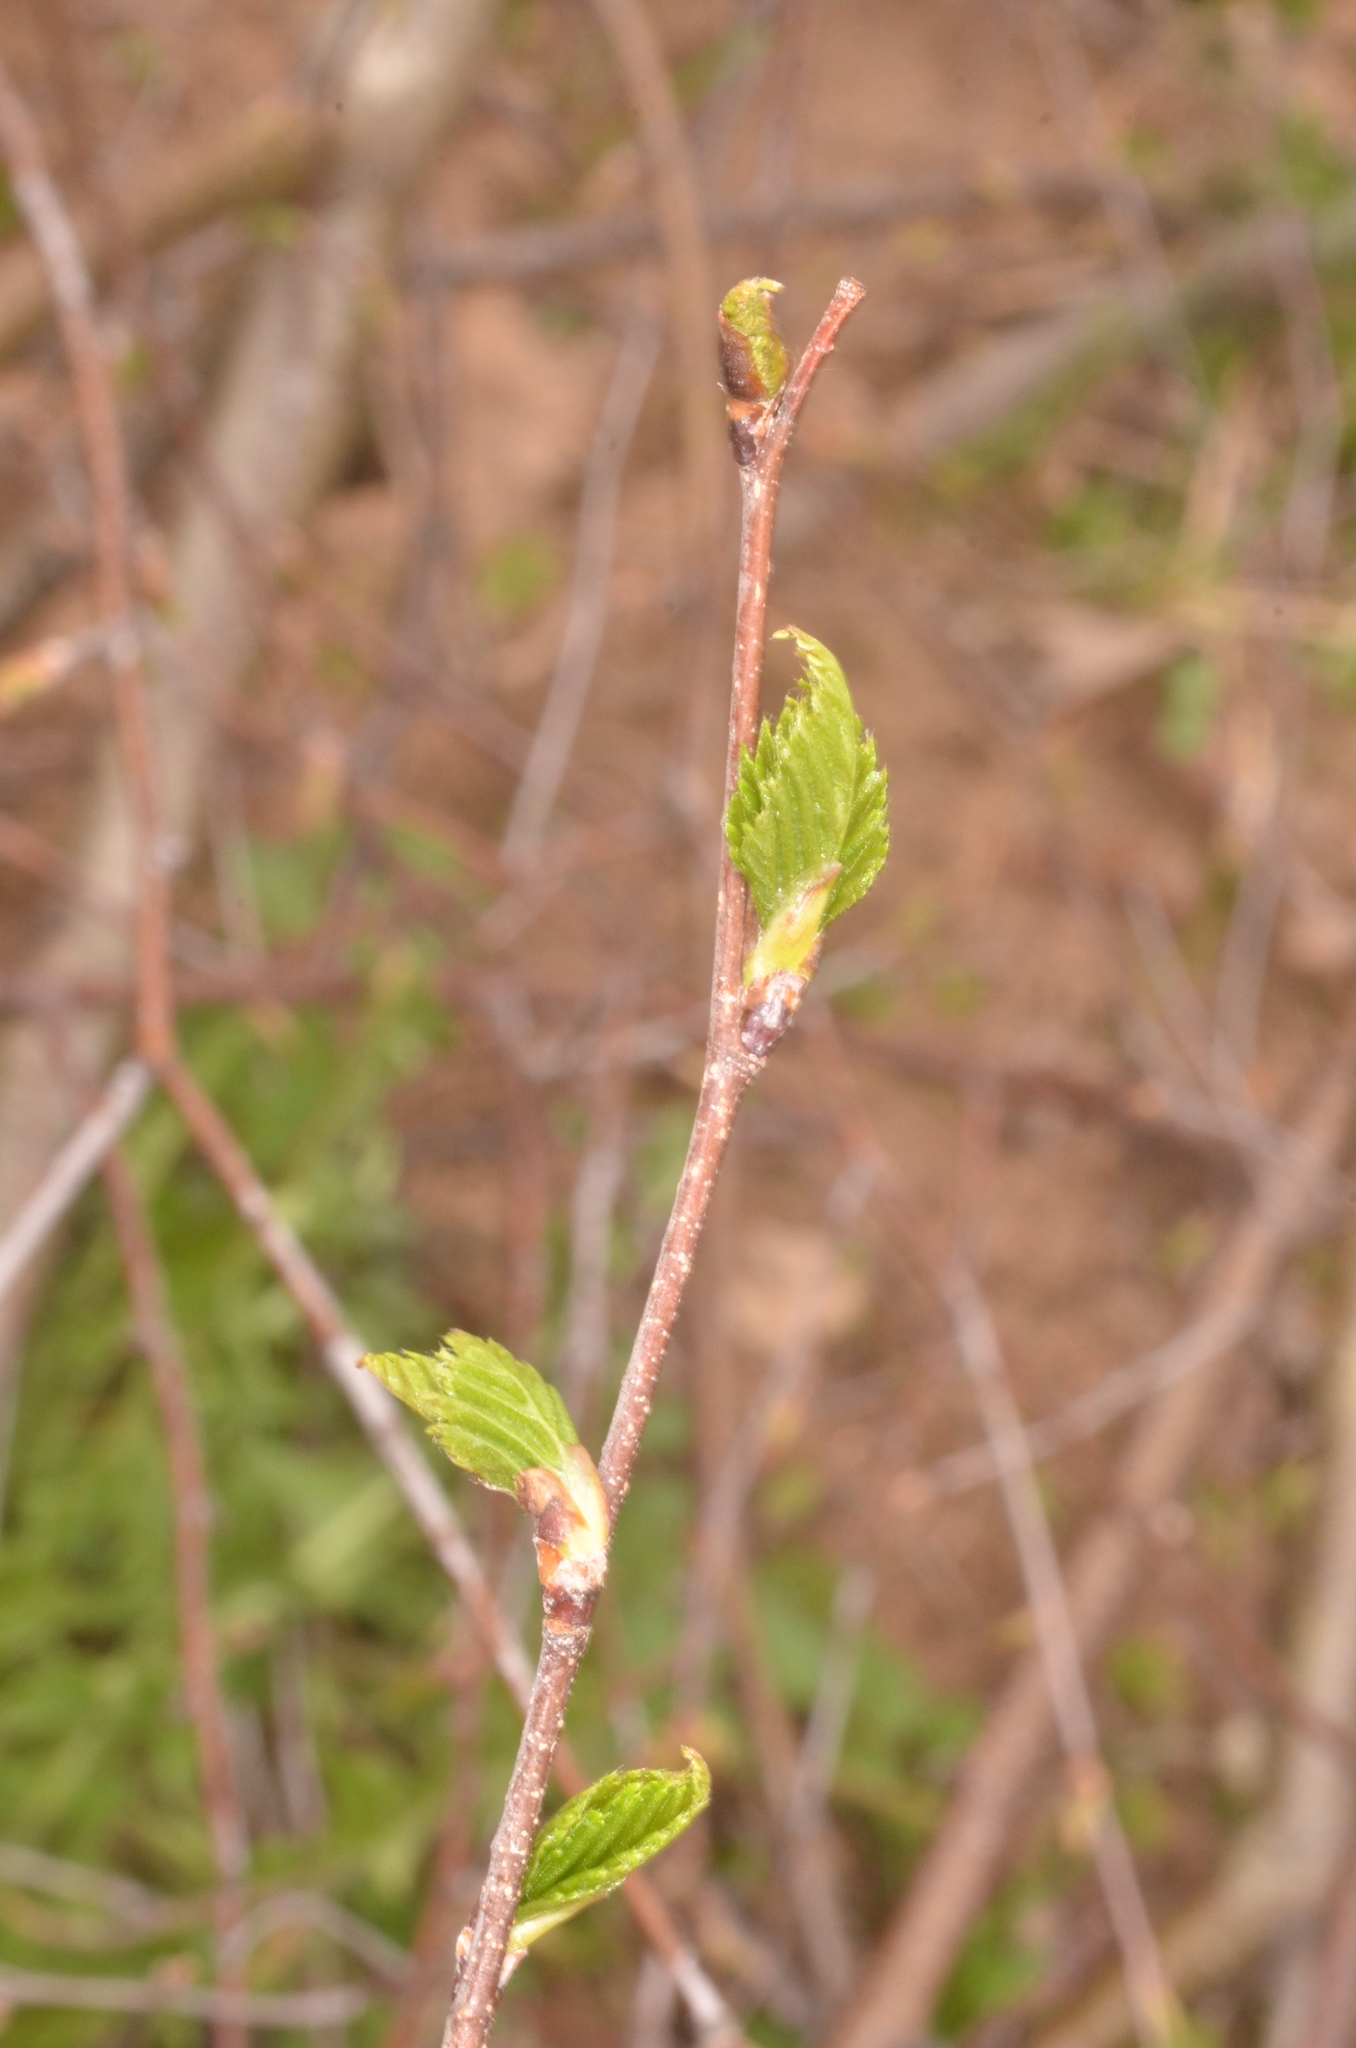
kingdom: Plantae
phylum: Tracheophyta
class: Magnoliopsida
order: Fagales
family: Betulaceae
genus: Betula
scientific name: Betula pendula
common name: Silver birch
